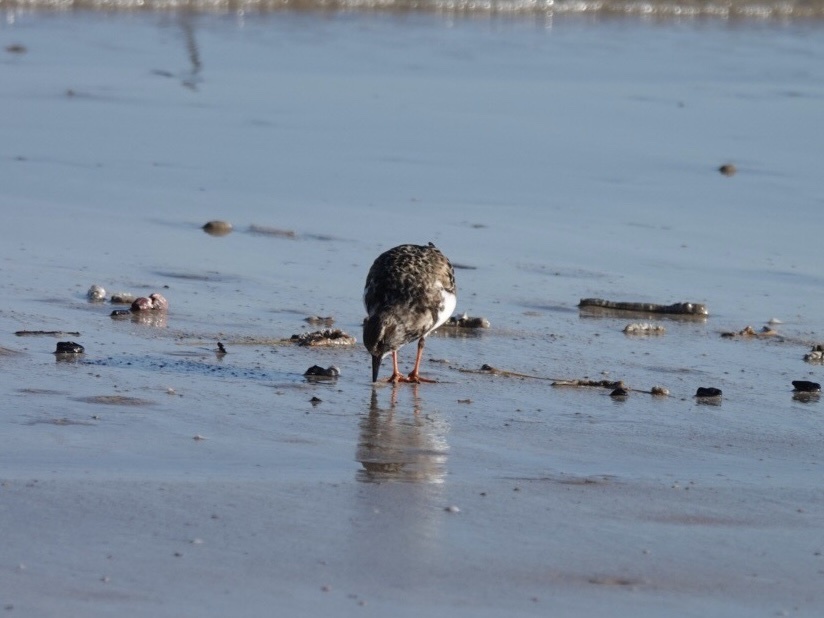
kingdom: Animalia
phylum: Chordata
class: Aves
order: Charadriiformes
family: Scolopacidae
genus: Arenaria
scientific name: Arenaria interpres
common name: Ruddy turnstone
